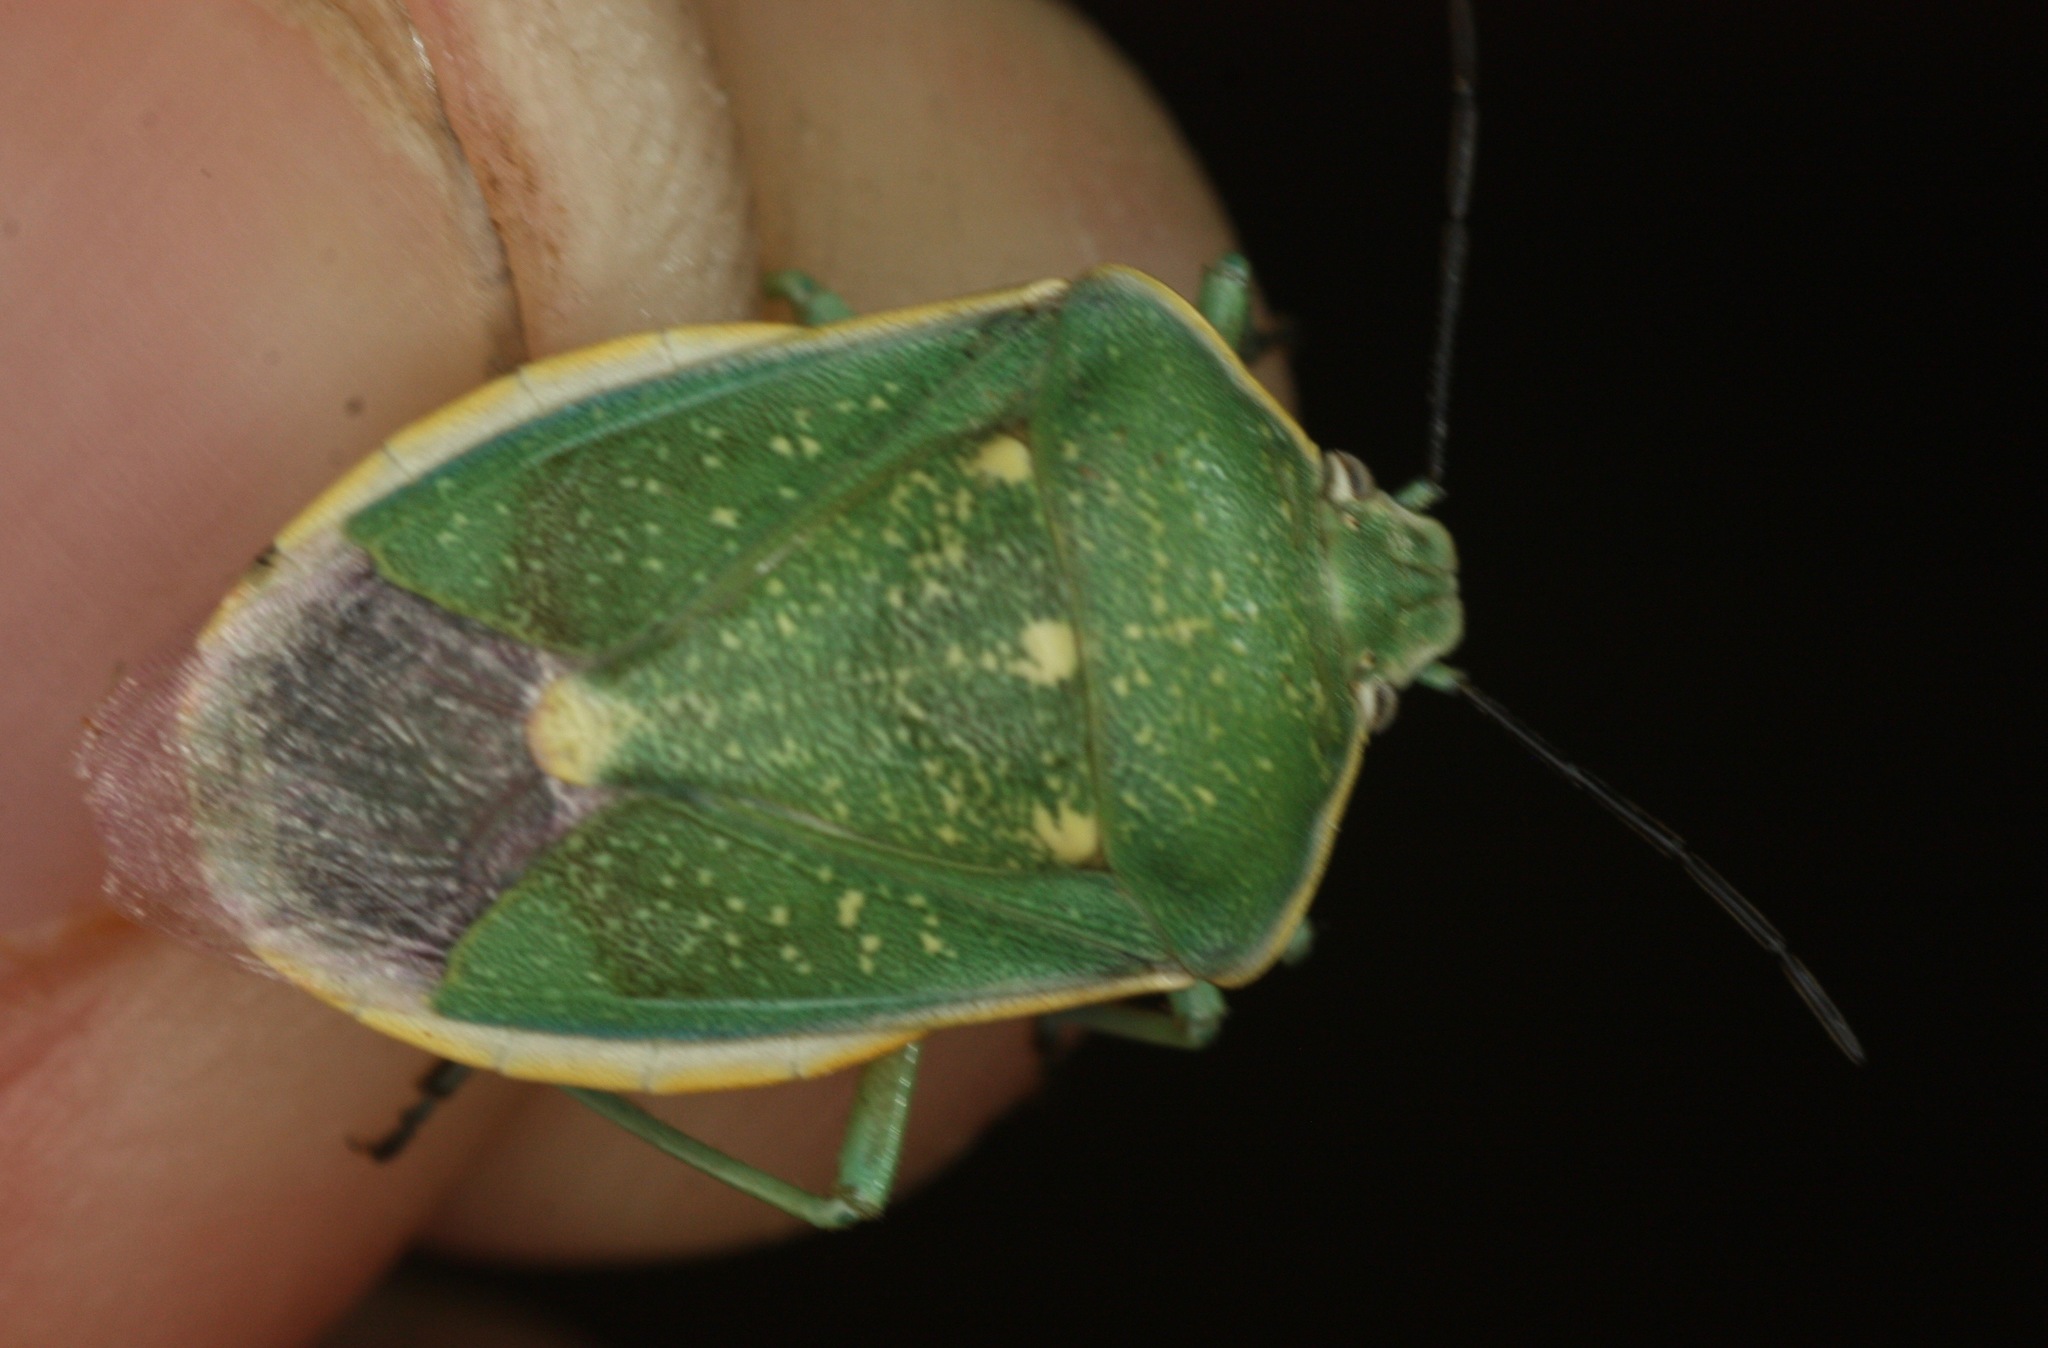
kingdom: Animalia
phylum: Arthropoda
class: Insecta
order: Hemiptera
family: Pentatomidae
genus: Chlorochroa
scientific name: Chlorochroa sayi
